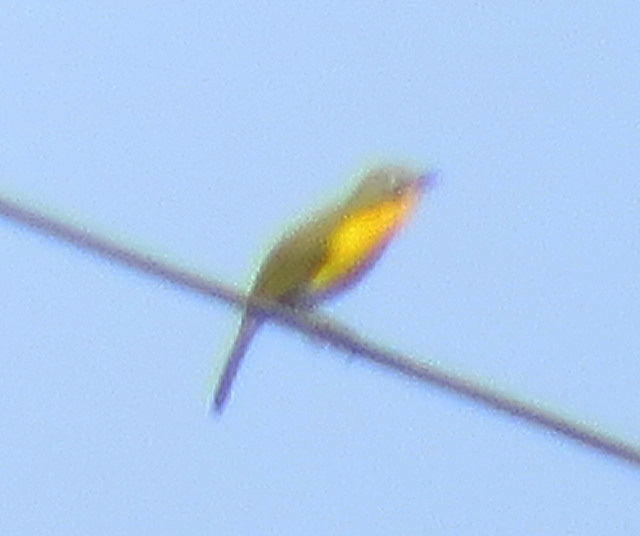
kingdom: Animalia
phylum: Chordata
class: Aves
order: Passeriformes
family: Parulidae
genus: Icteria
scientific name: Icteria virens
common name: Yellow-breasted chat
